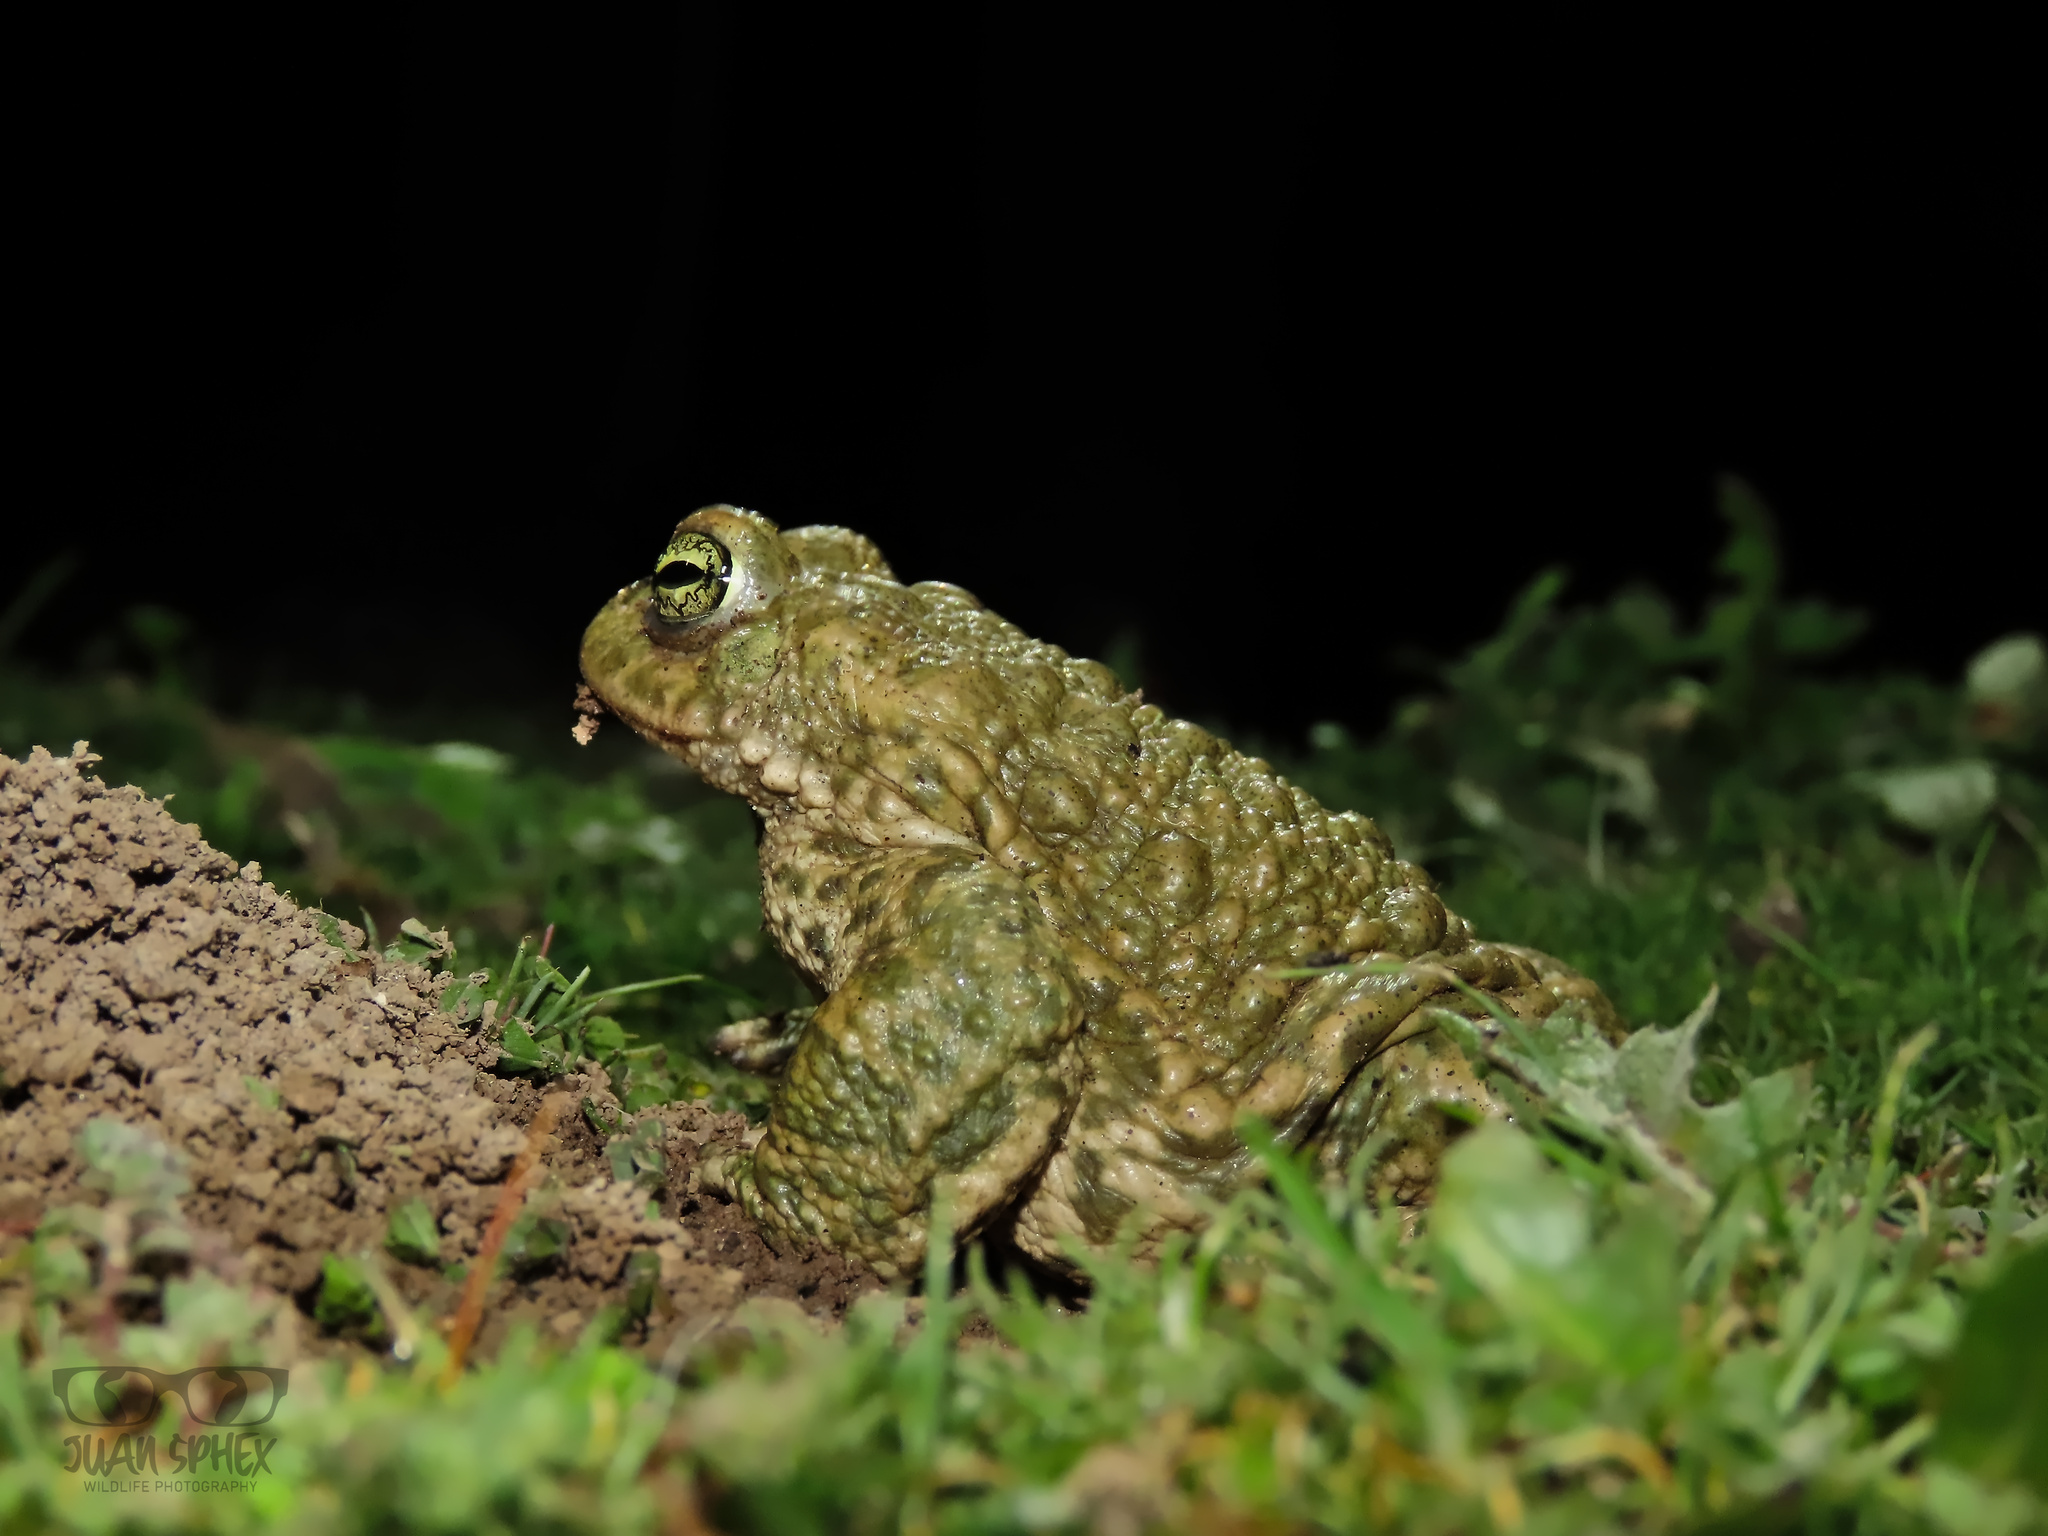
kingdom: Animalia
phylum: Chordata
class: Amphibia
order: Anura
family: Bufonidae
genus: Epidalea
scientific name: Epidalea calamita
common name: Natterjack toad
